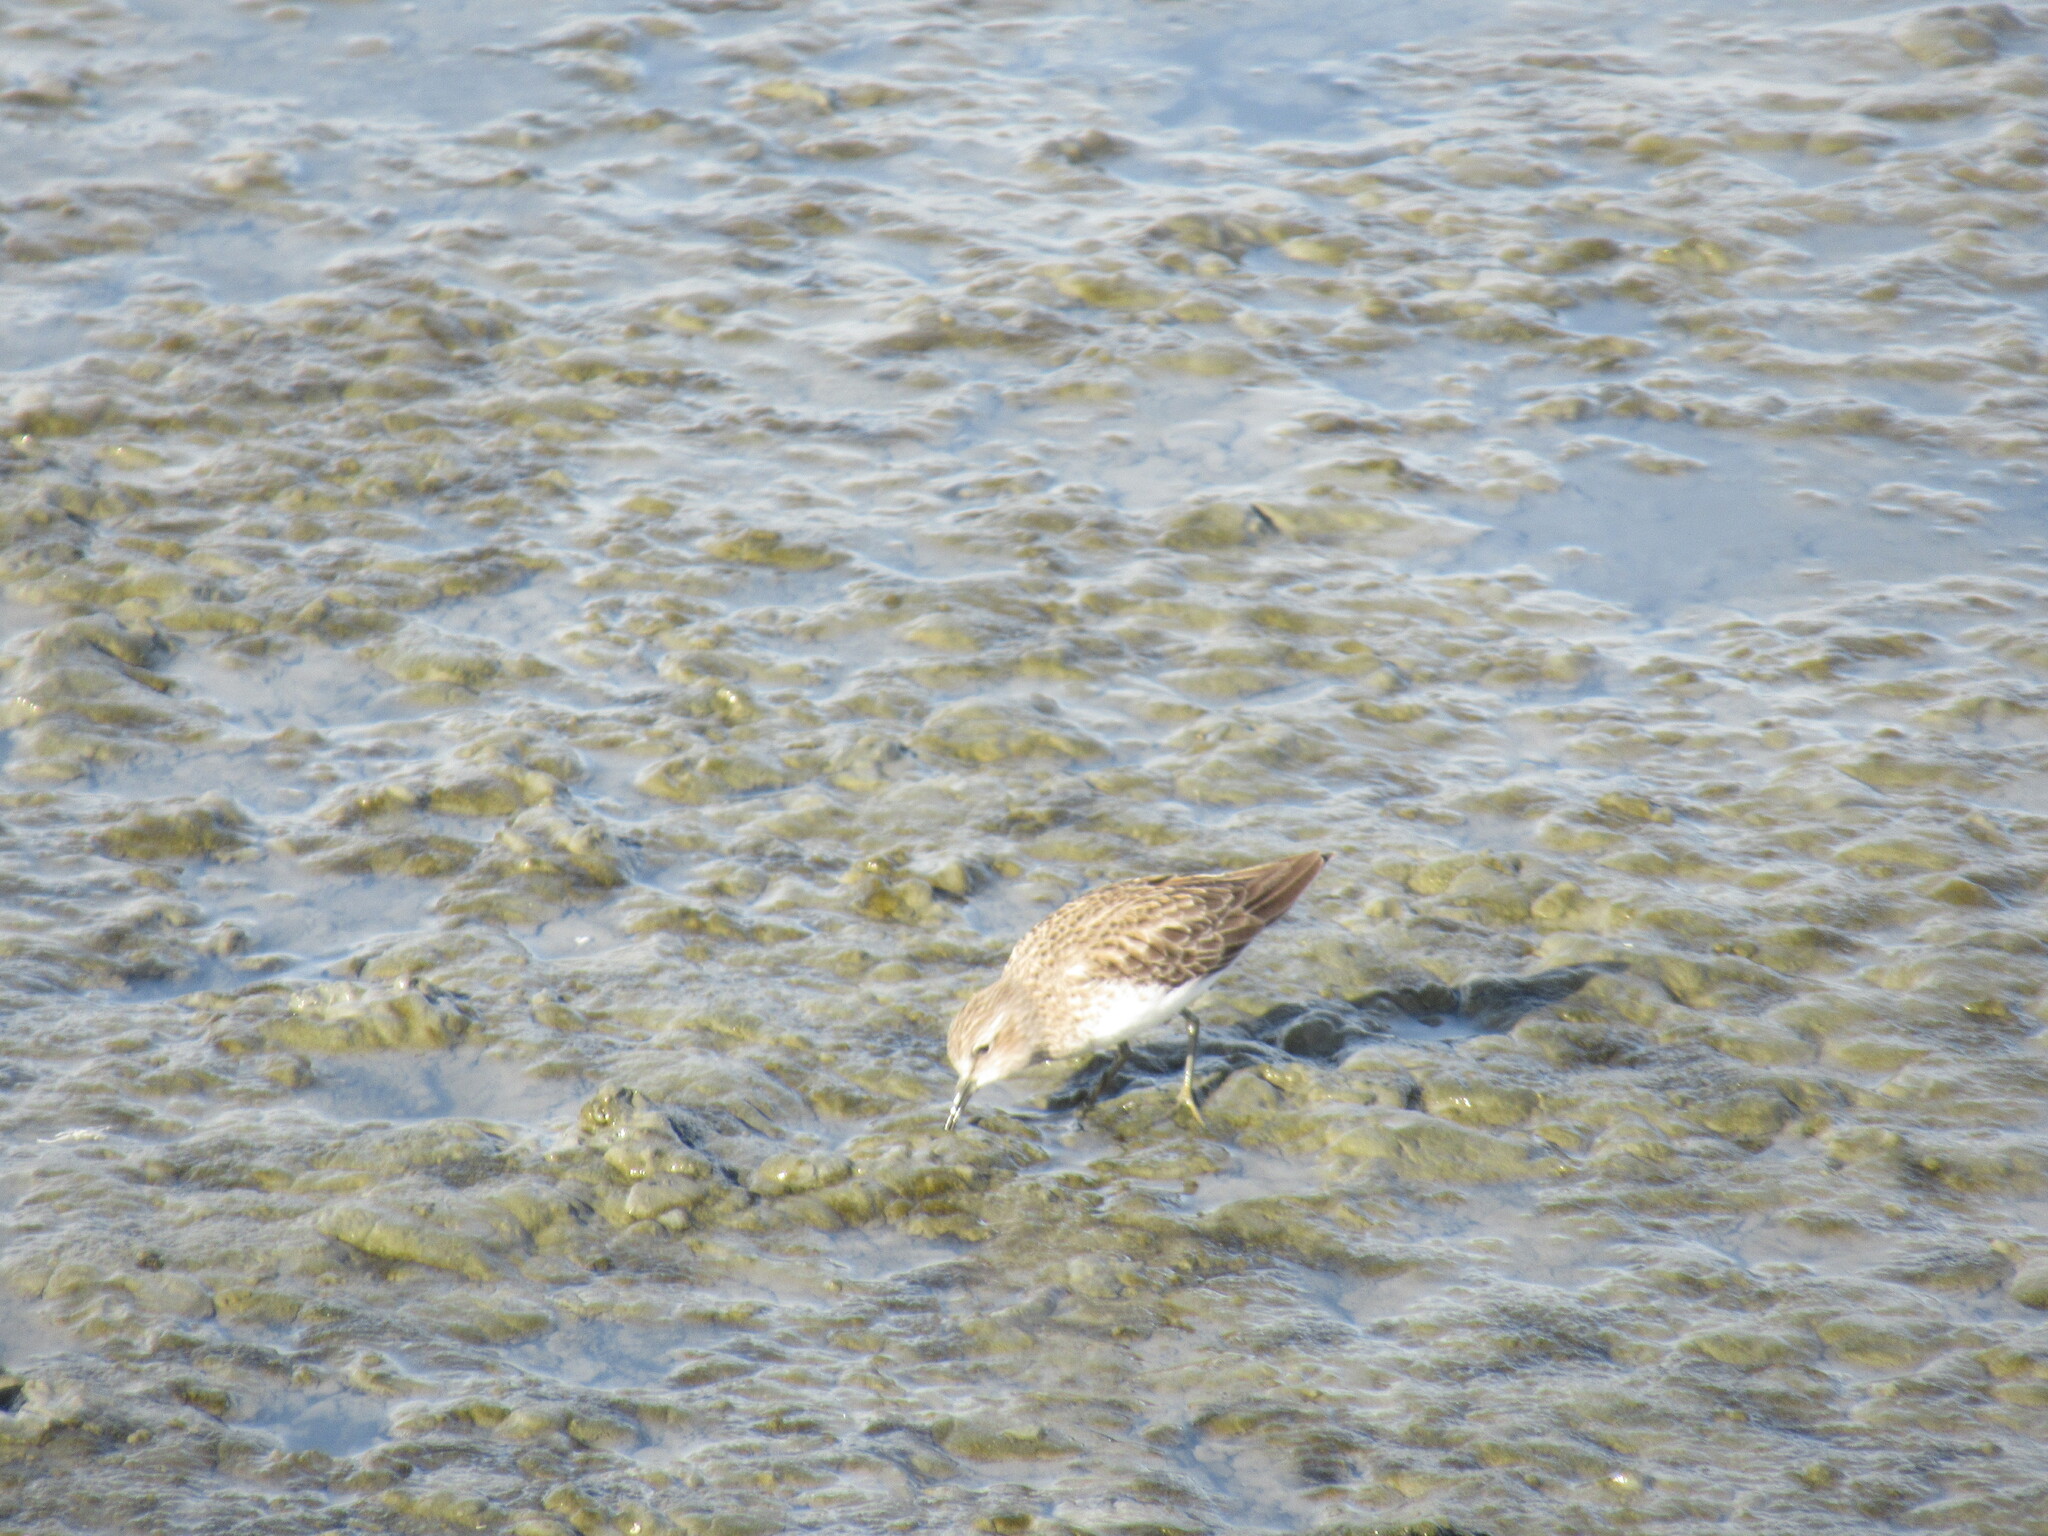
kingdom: Animalia
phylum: Chordata
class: Aves
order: Charadriiformes
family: Scolopacidae
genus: Calidris
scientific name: Calidris minutilla
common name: Least sandpiper
